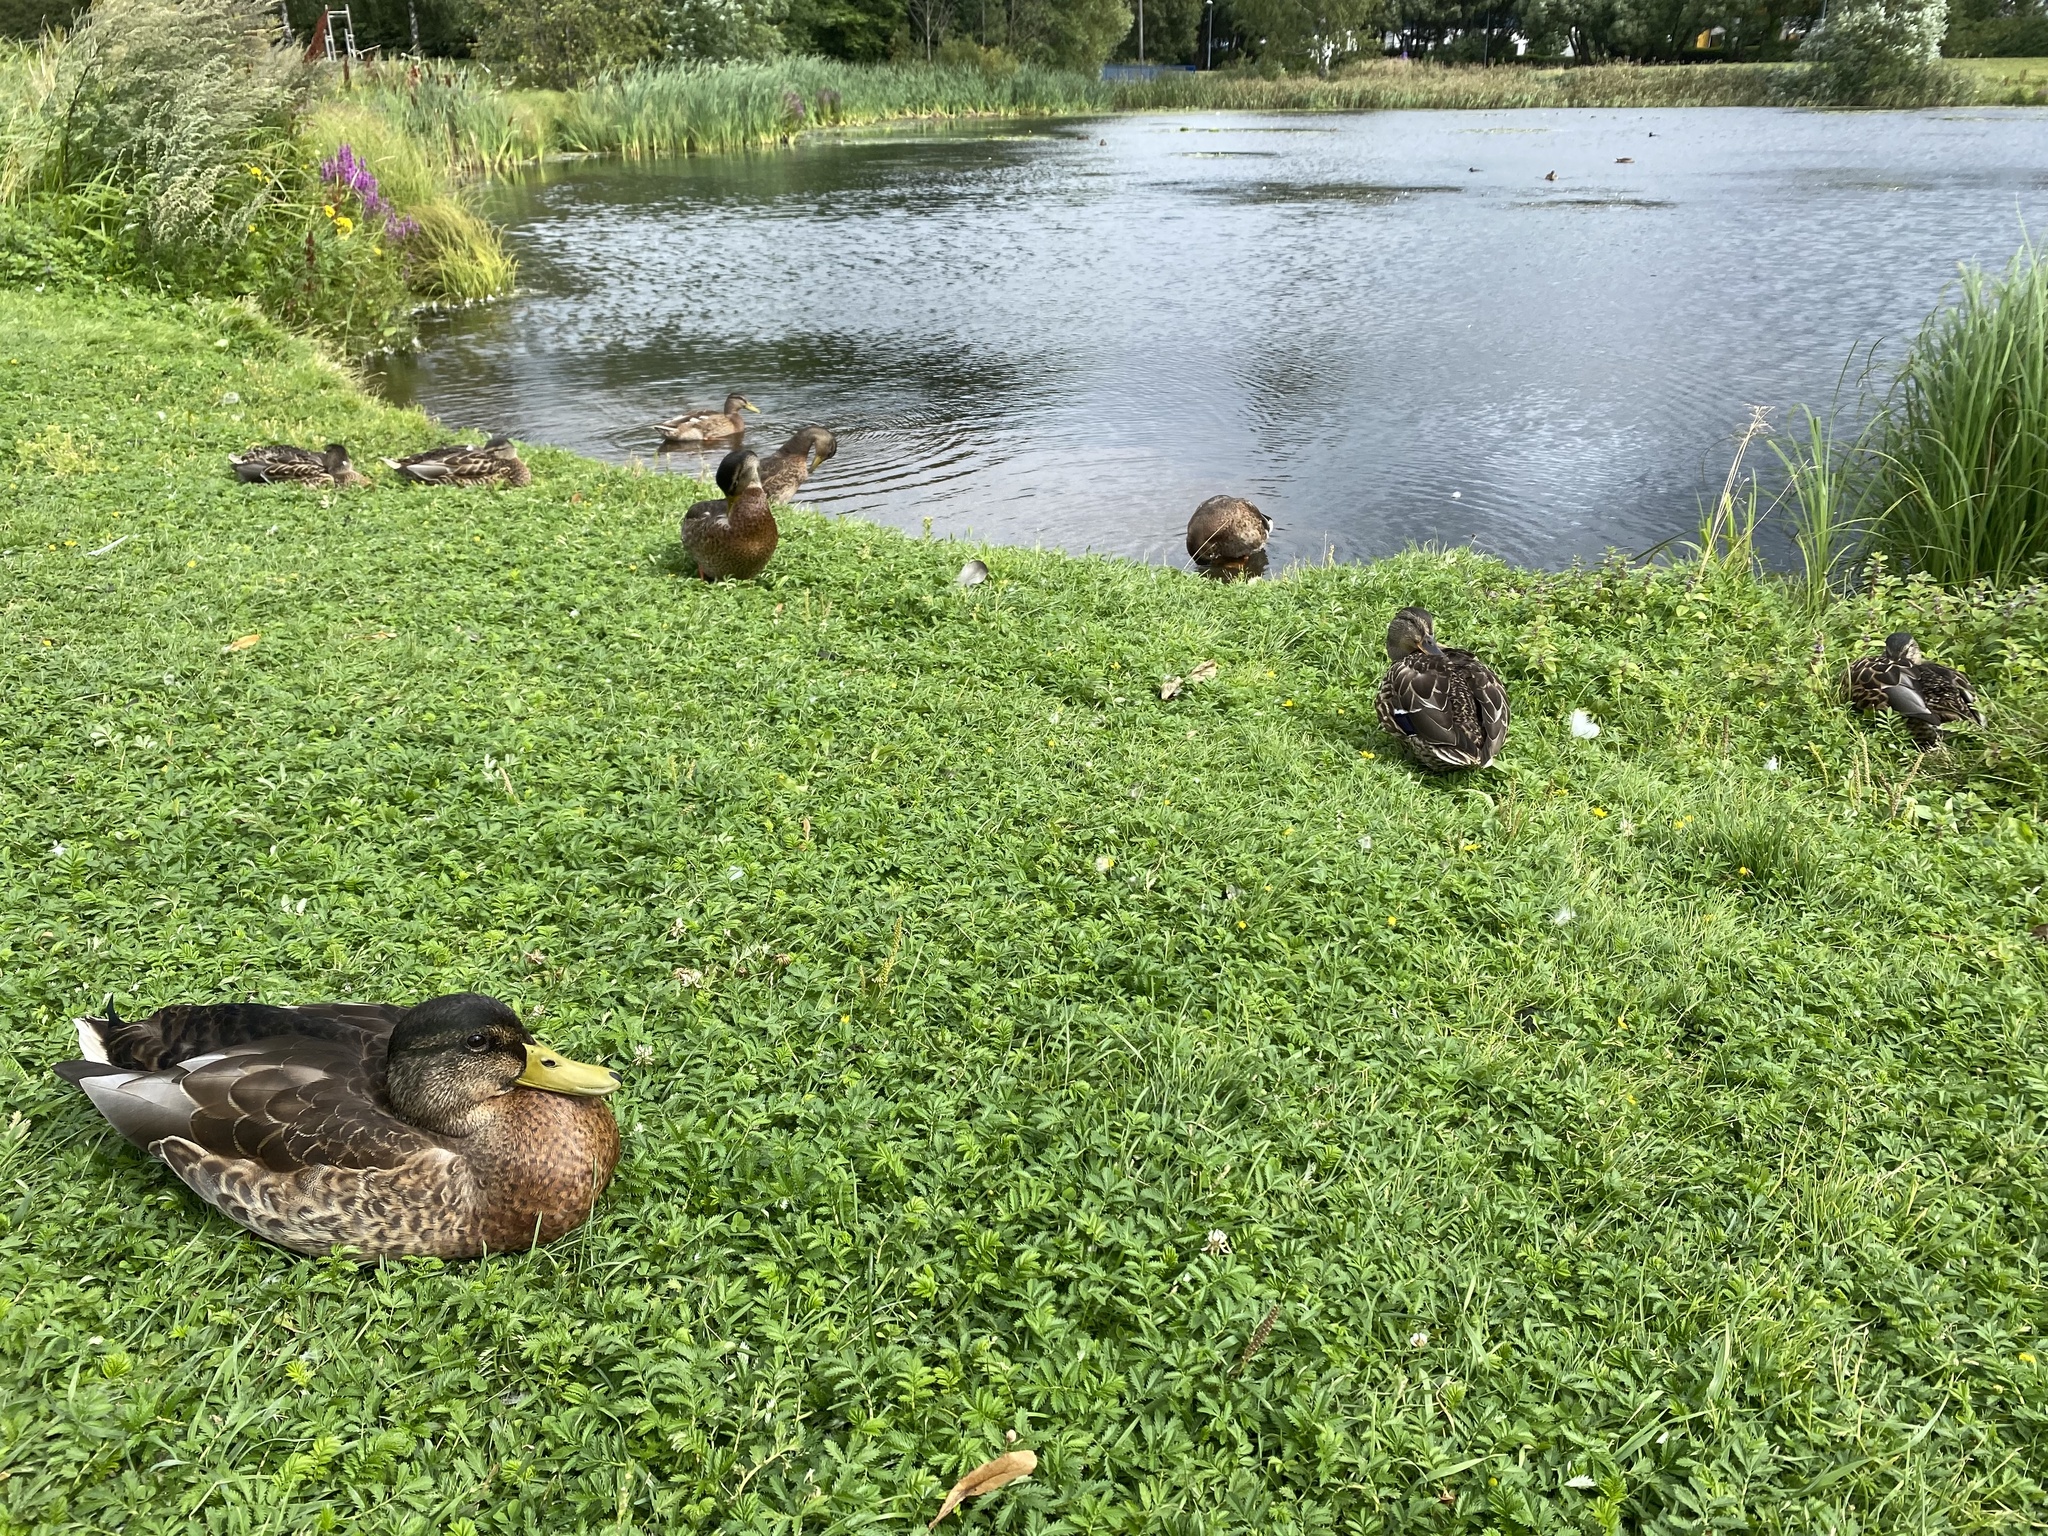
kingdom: Animalia
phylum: Chordata
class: Aves
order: Anseriformes
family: Anatidae
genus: Anas
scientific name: Anas platyrhynchos
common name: Mallard
